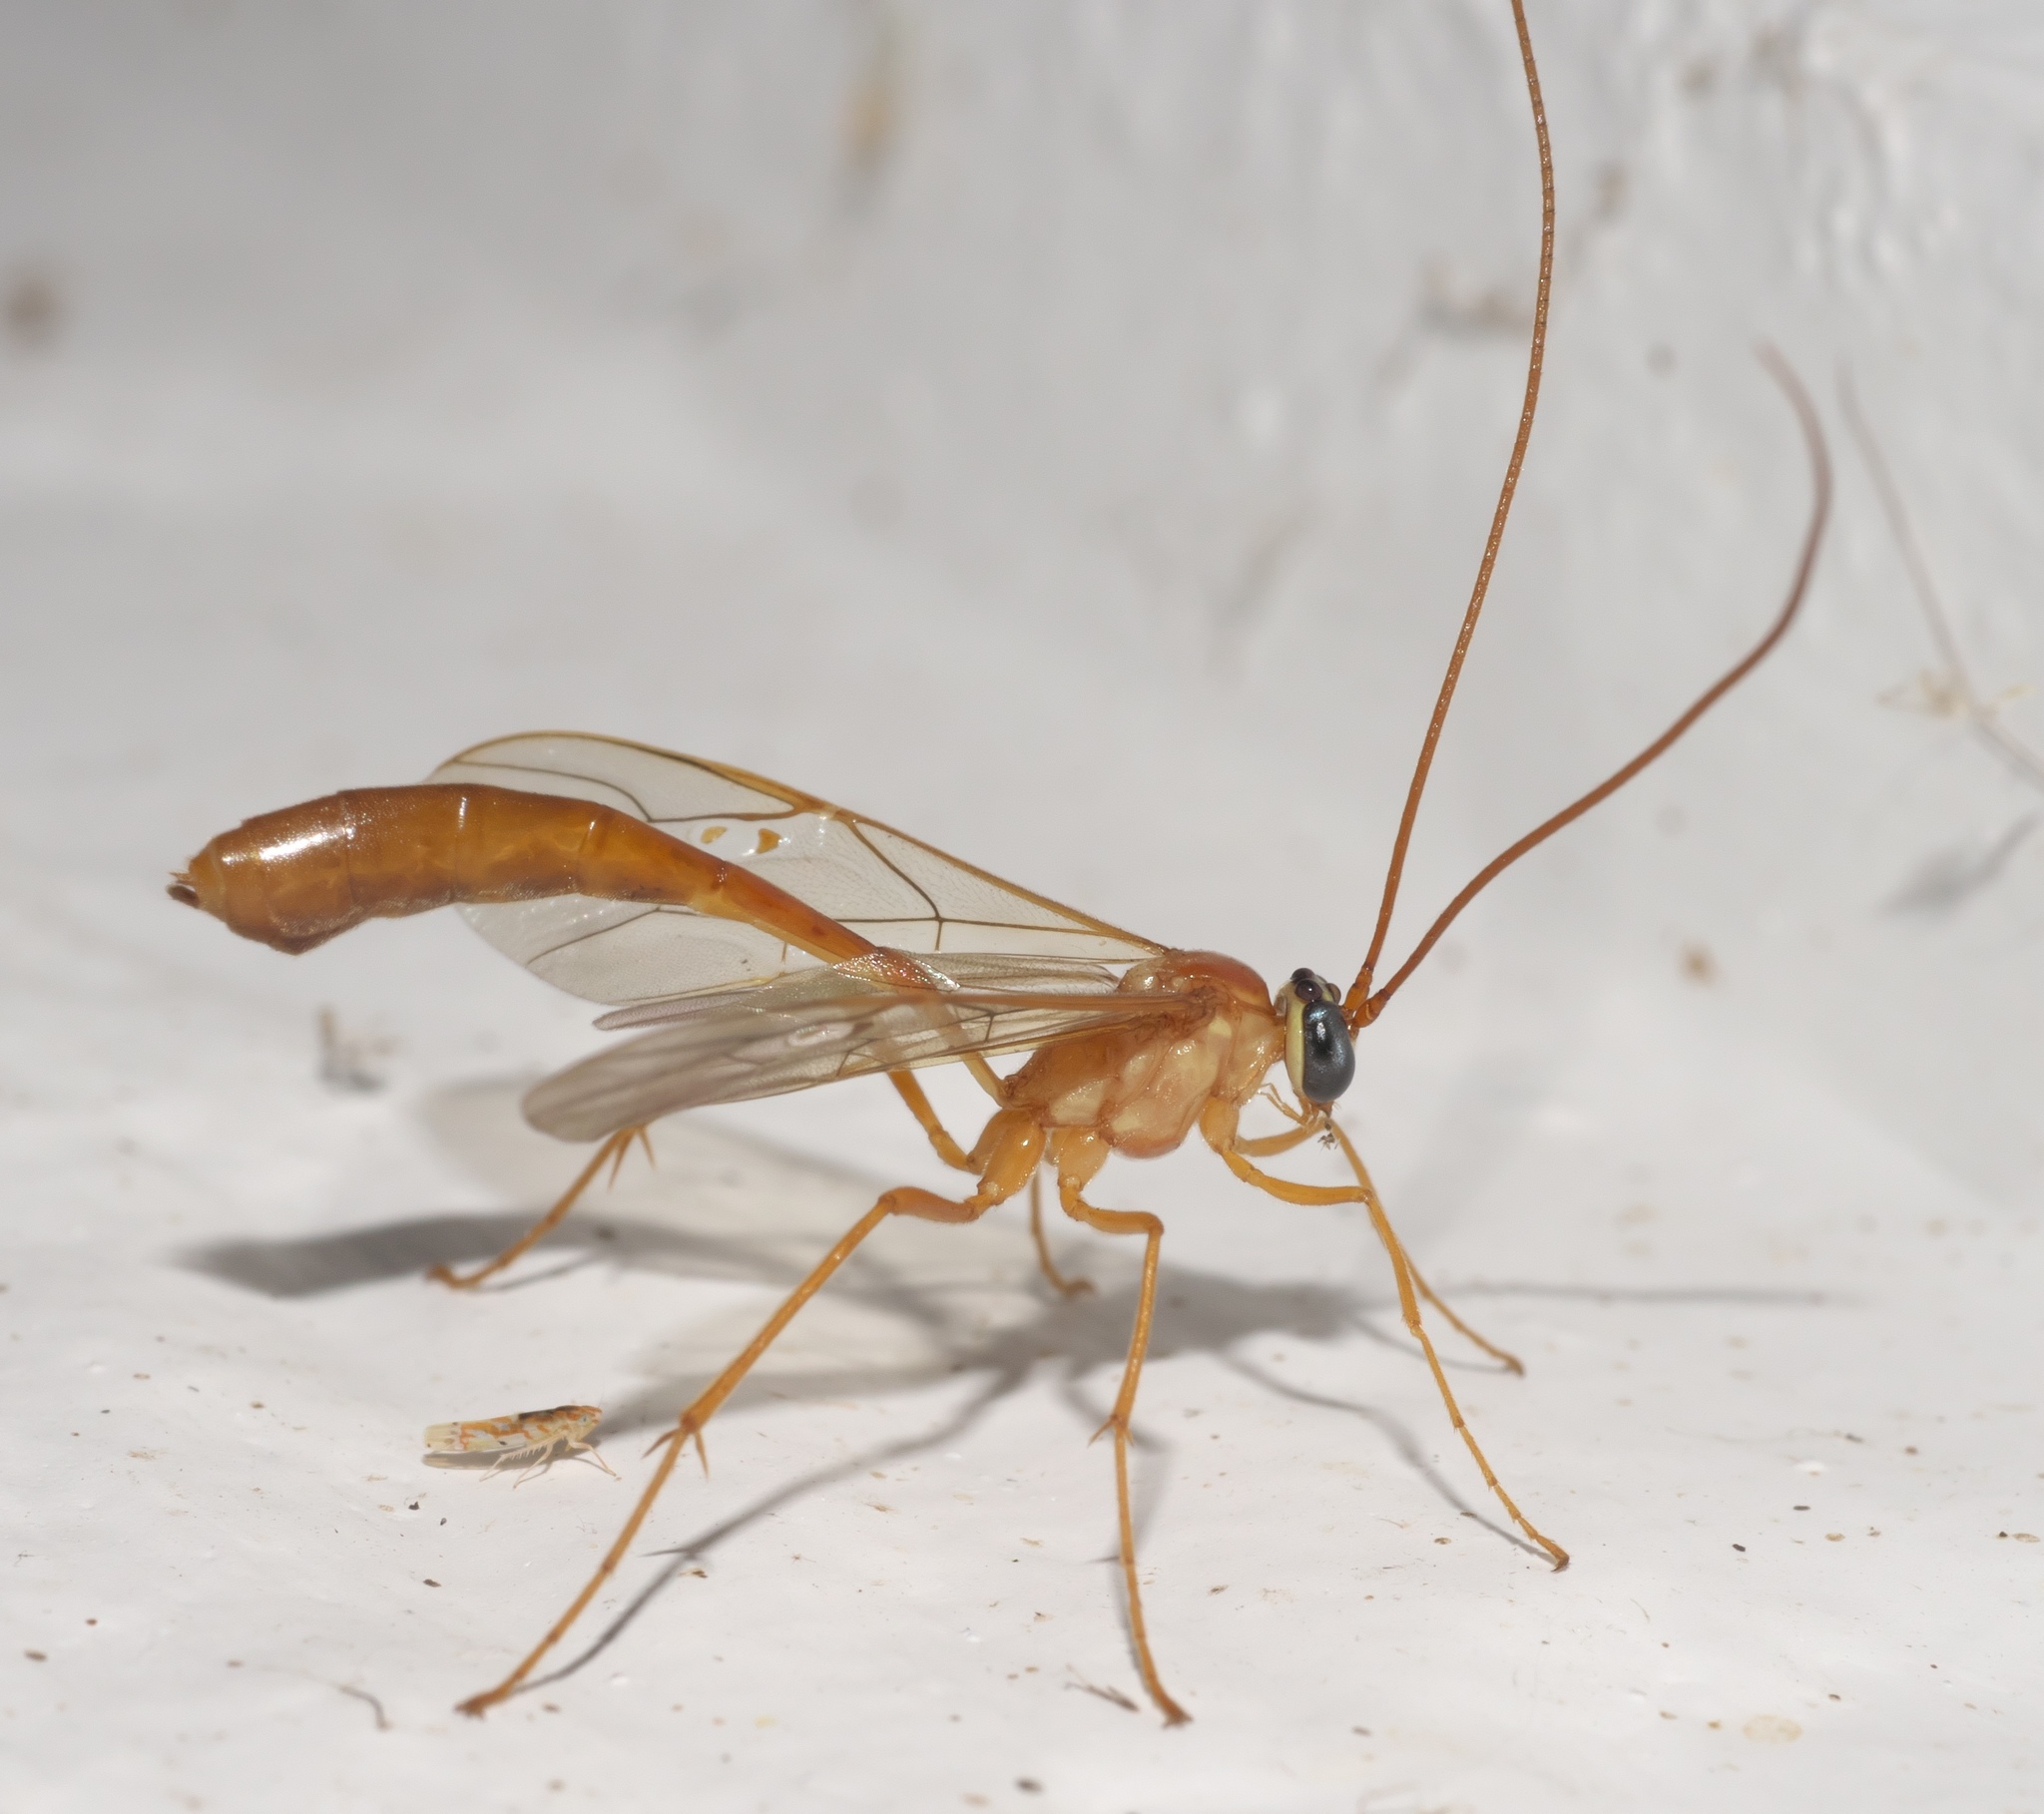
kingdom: Animalia
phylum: Arthropoda
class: Insecta
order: Hymenoptera
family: Ichneumonidae
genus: Enicospilus
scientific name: Enicospilus purgatus
